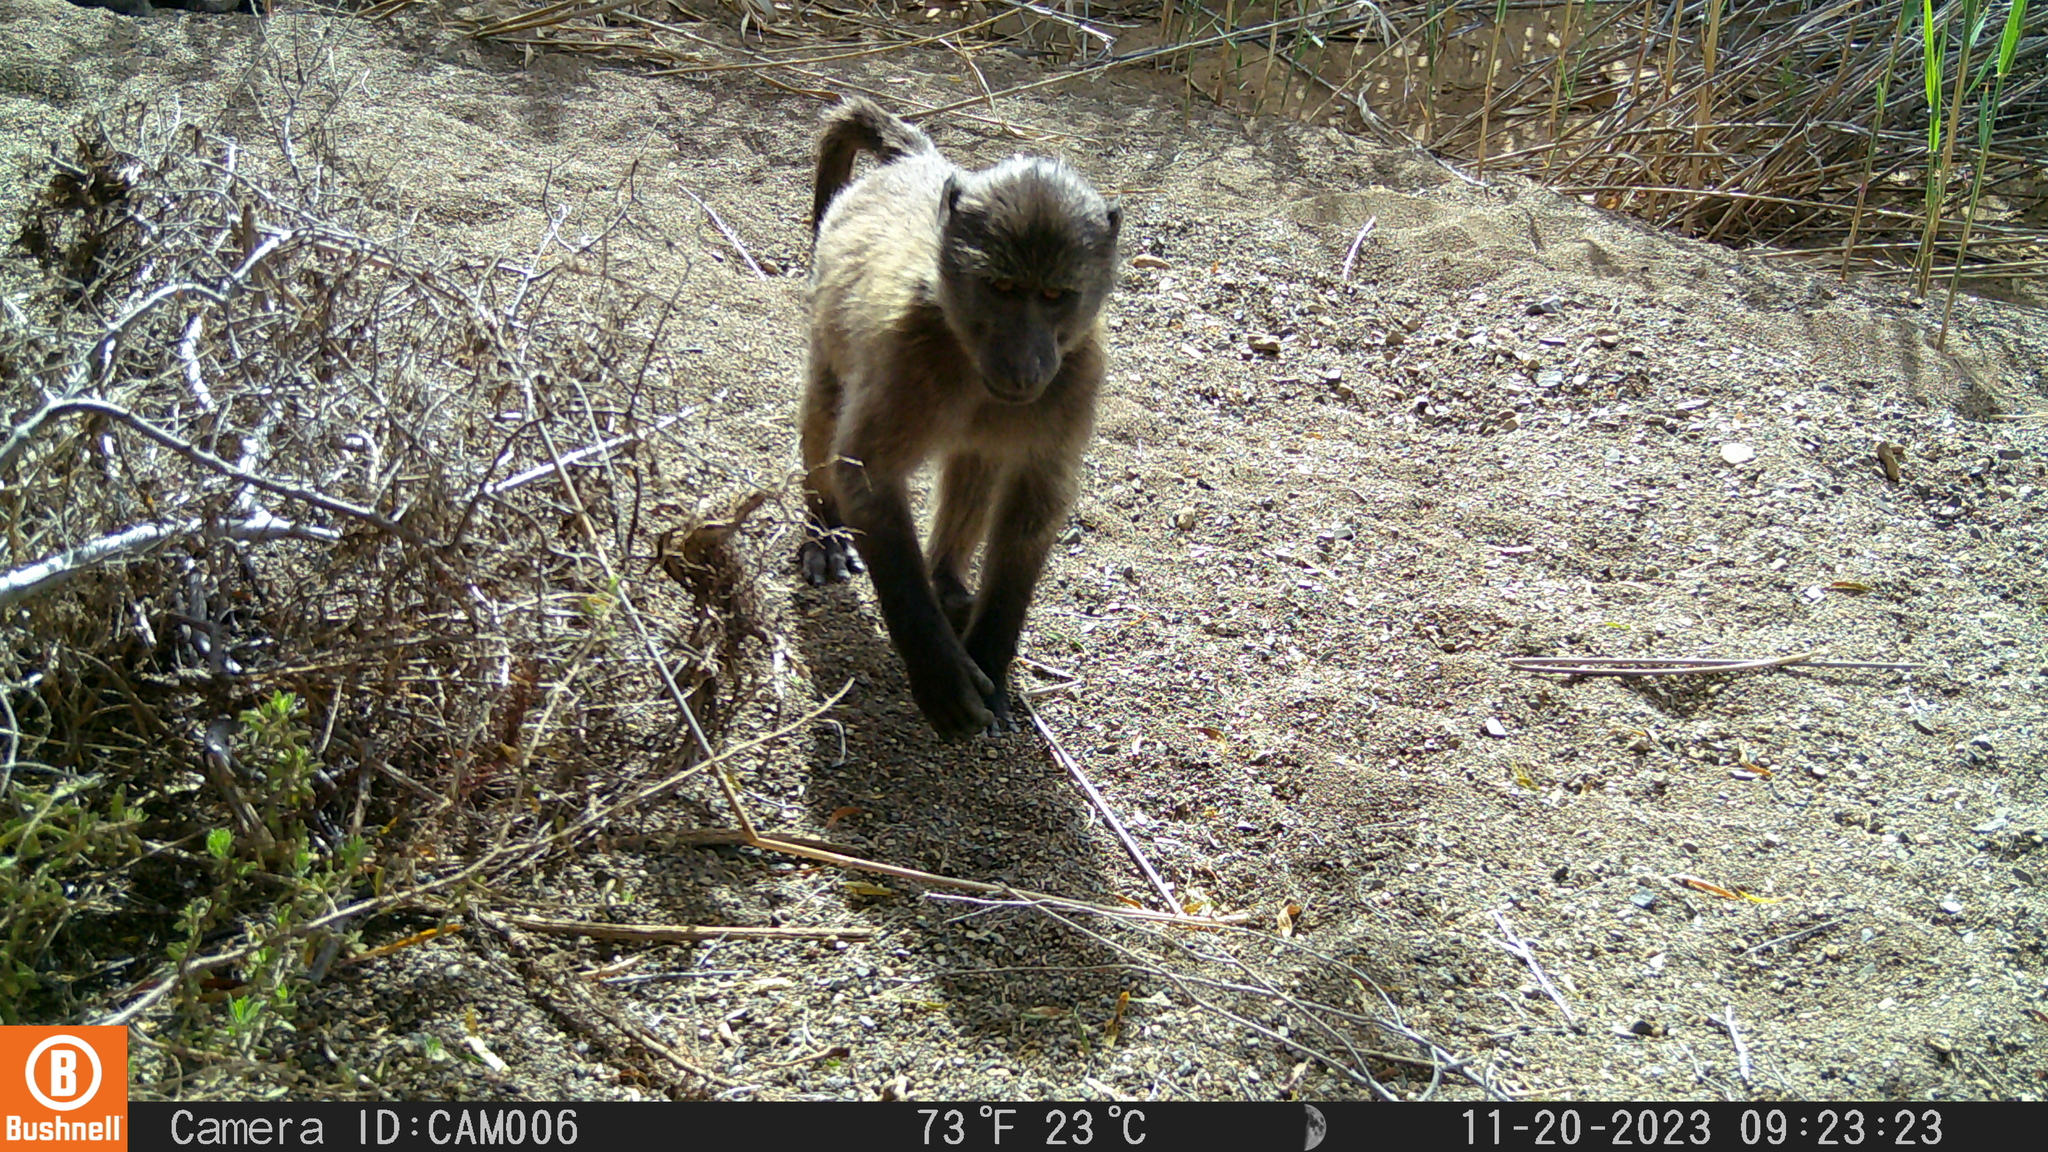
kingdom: Animalia
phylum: Chordata
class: Mammalia
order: Primates
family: Cercopithecidae
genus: Papio
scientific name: Papio ursinus
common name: Chacma baboon
